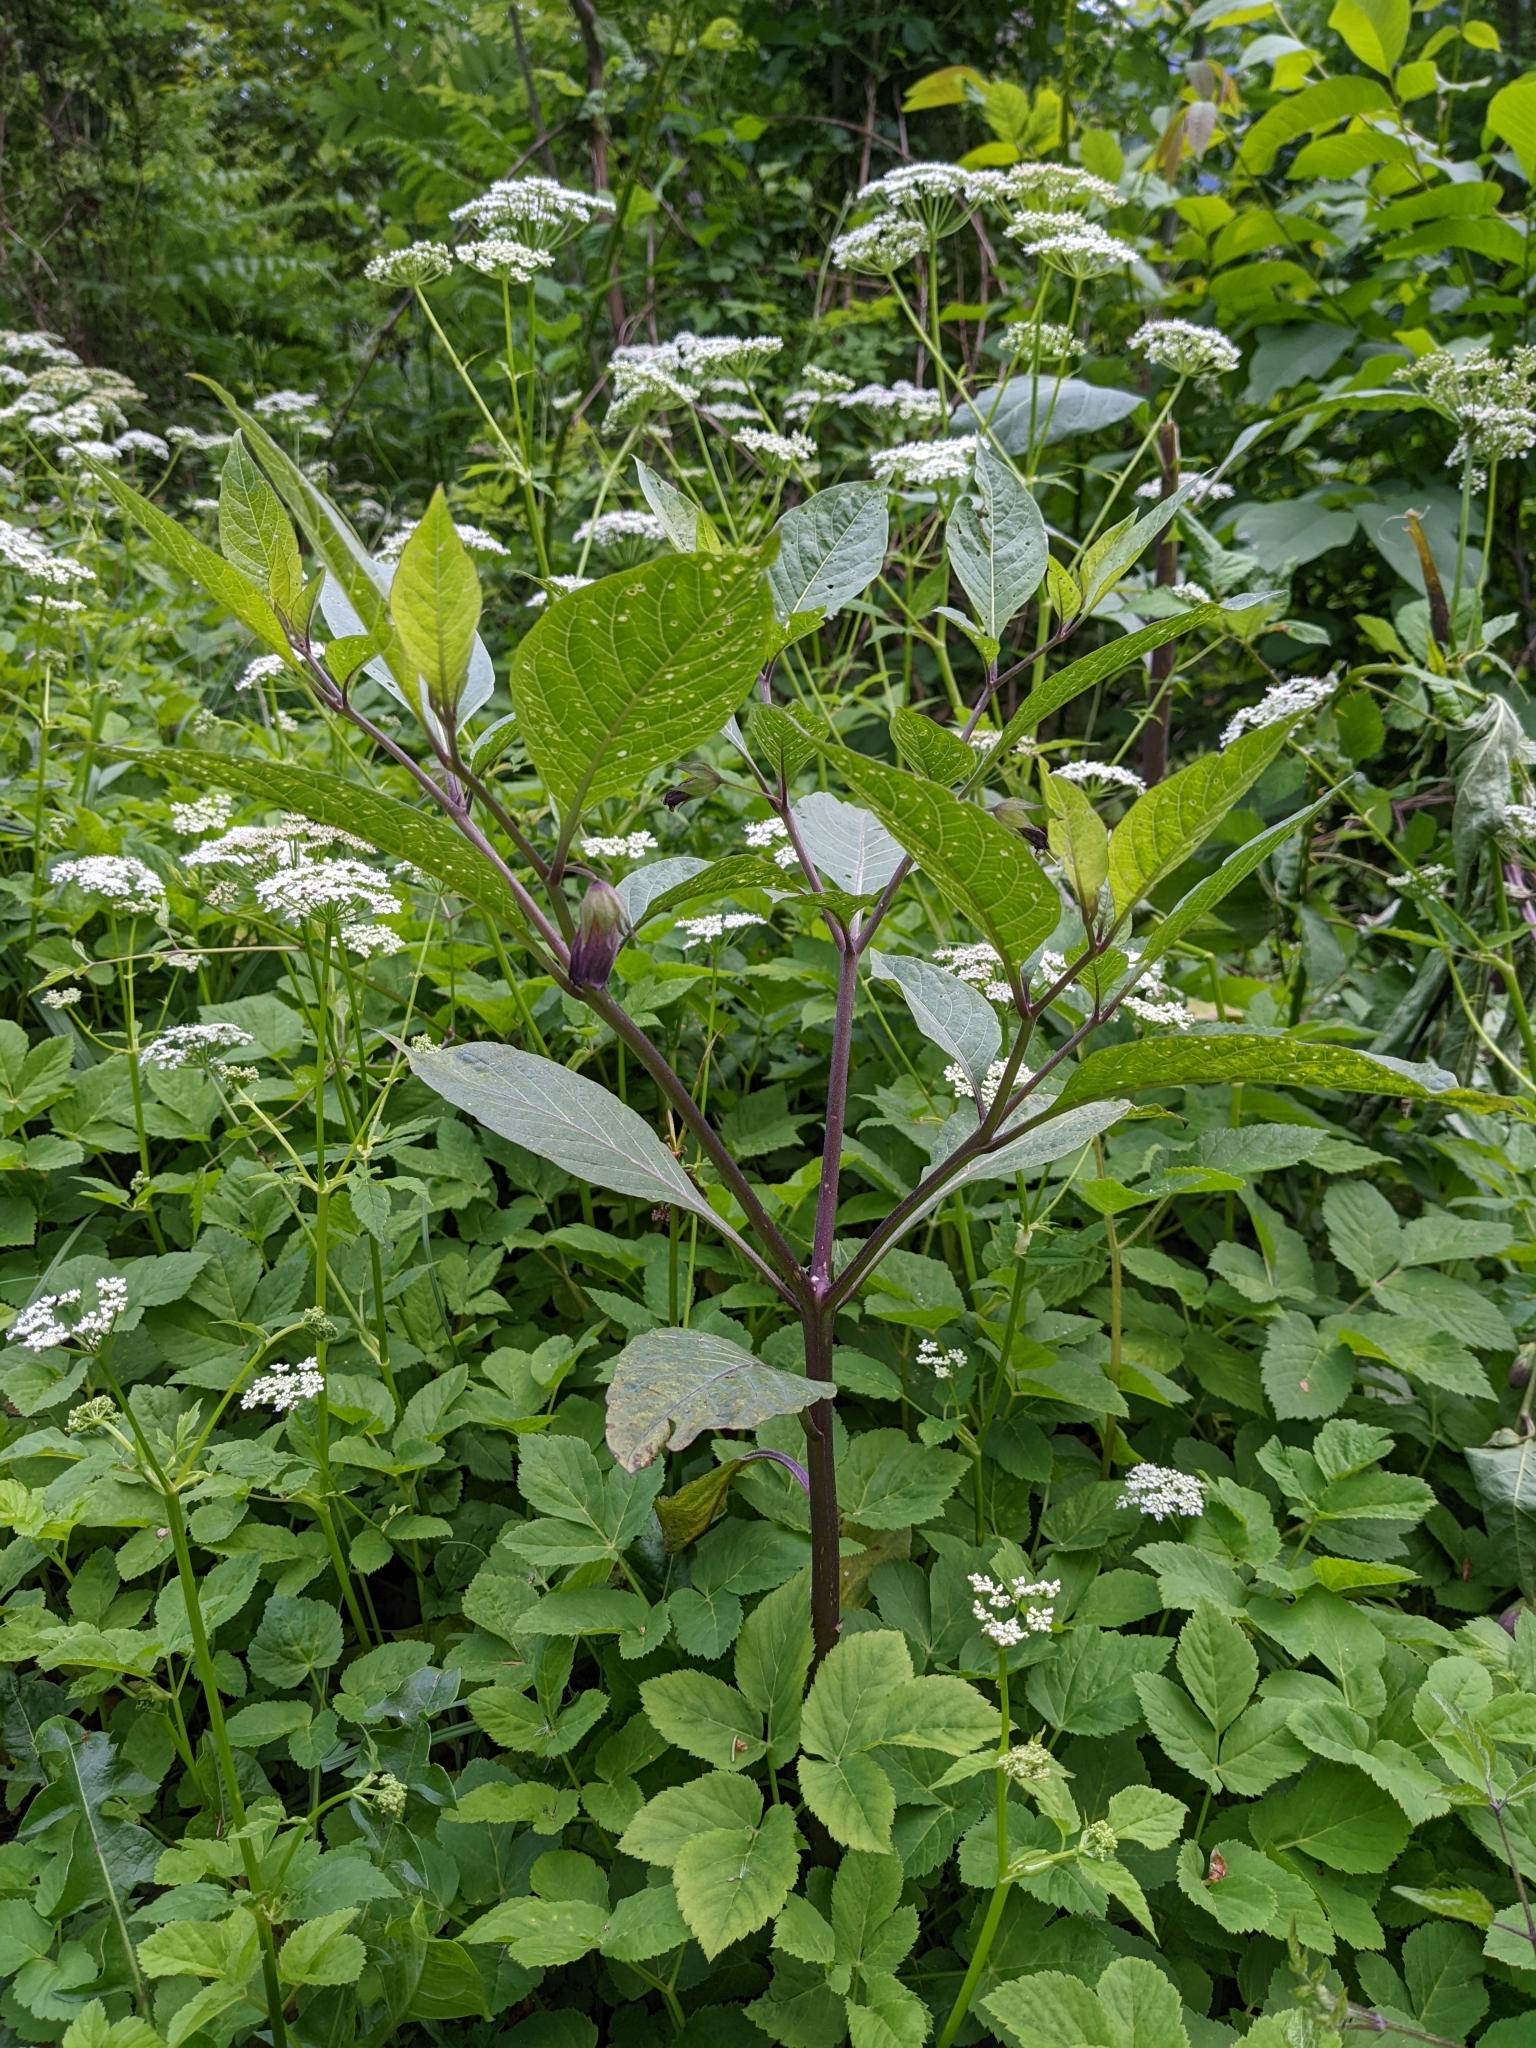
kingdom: Plantae
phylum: Tracheophyta
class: Magnoliopsida
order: Solanales
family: Solanaceae
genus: Atropa
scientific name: Atropa belladonna
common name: Deadly nightshade
